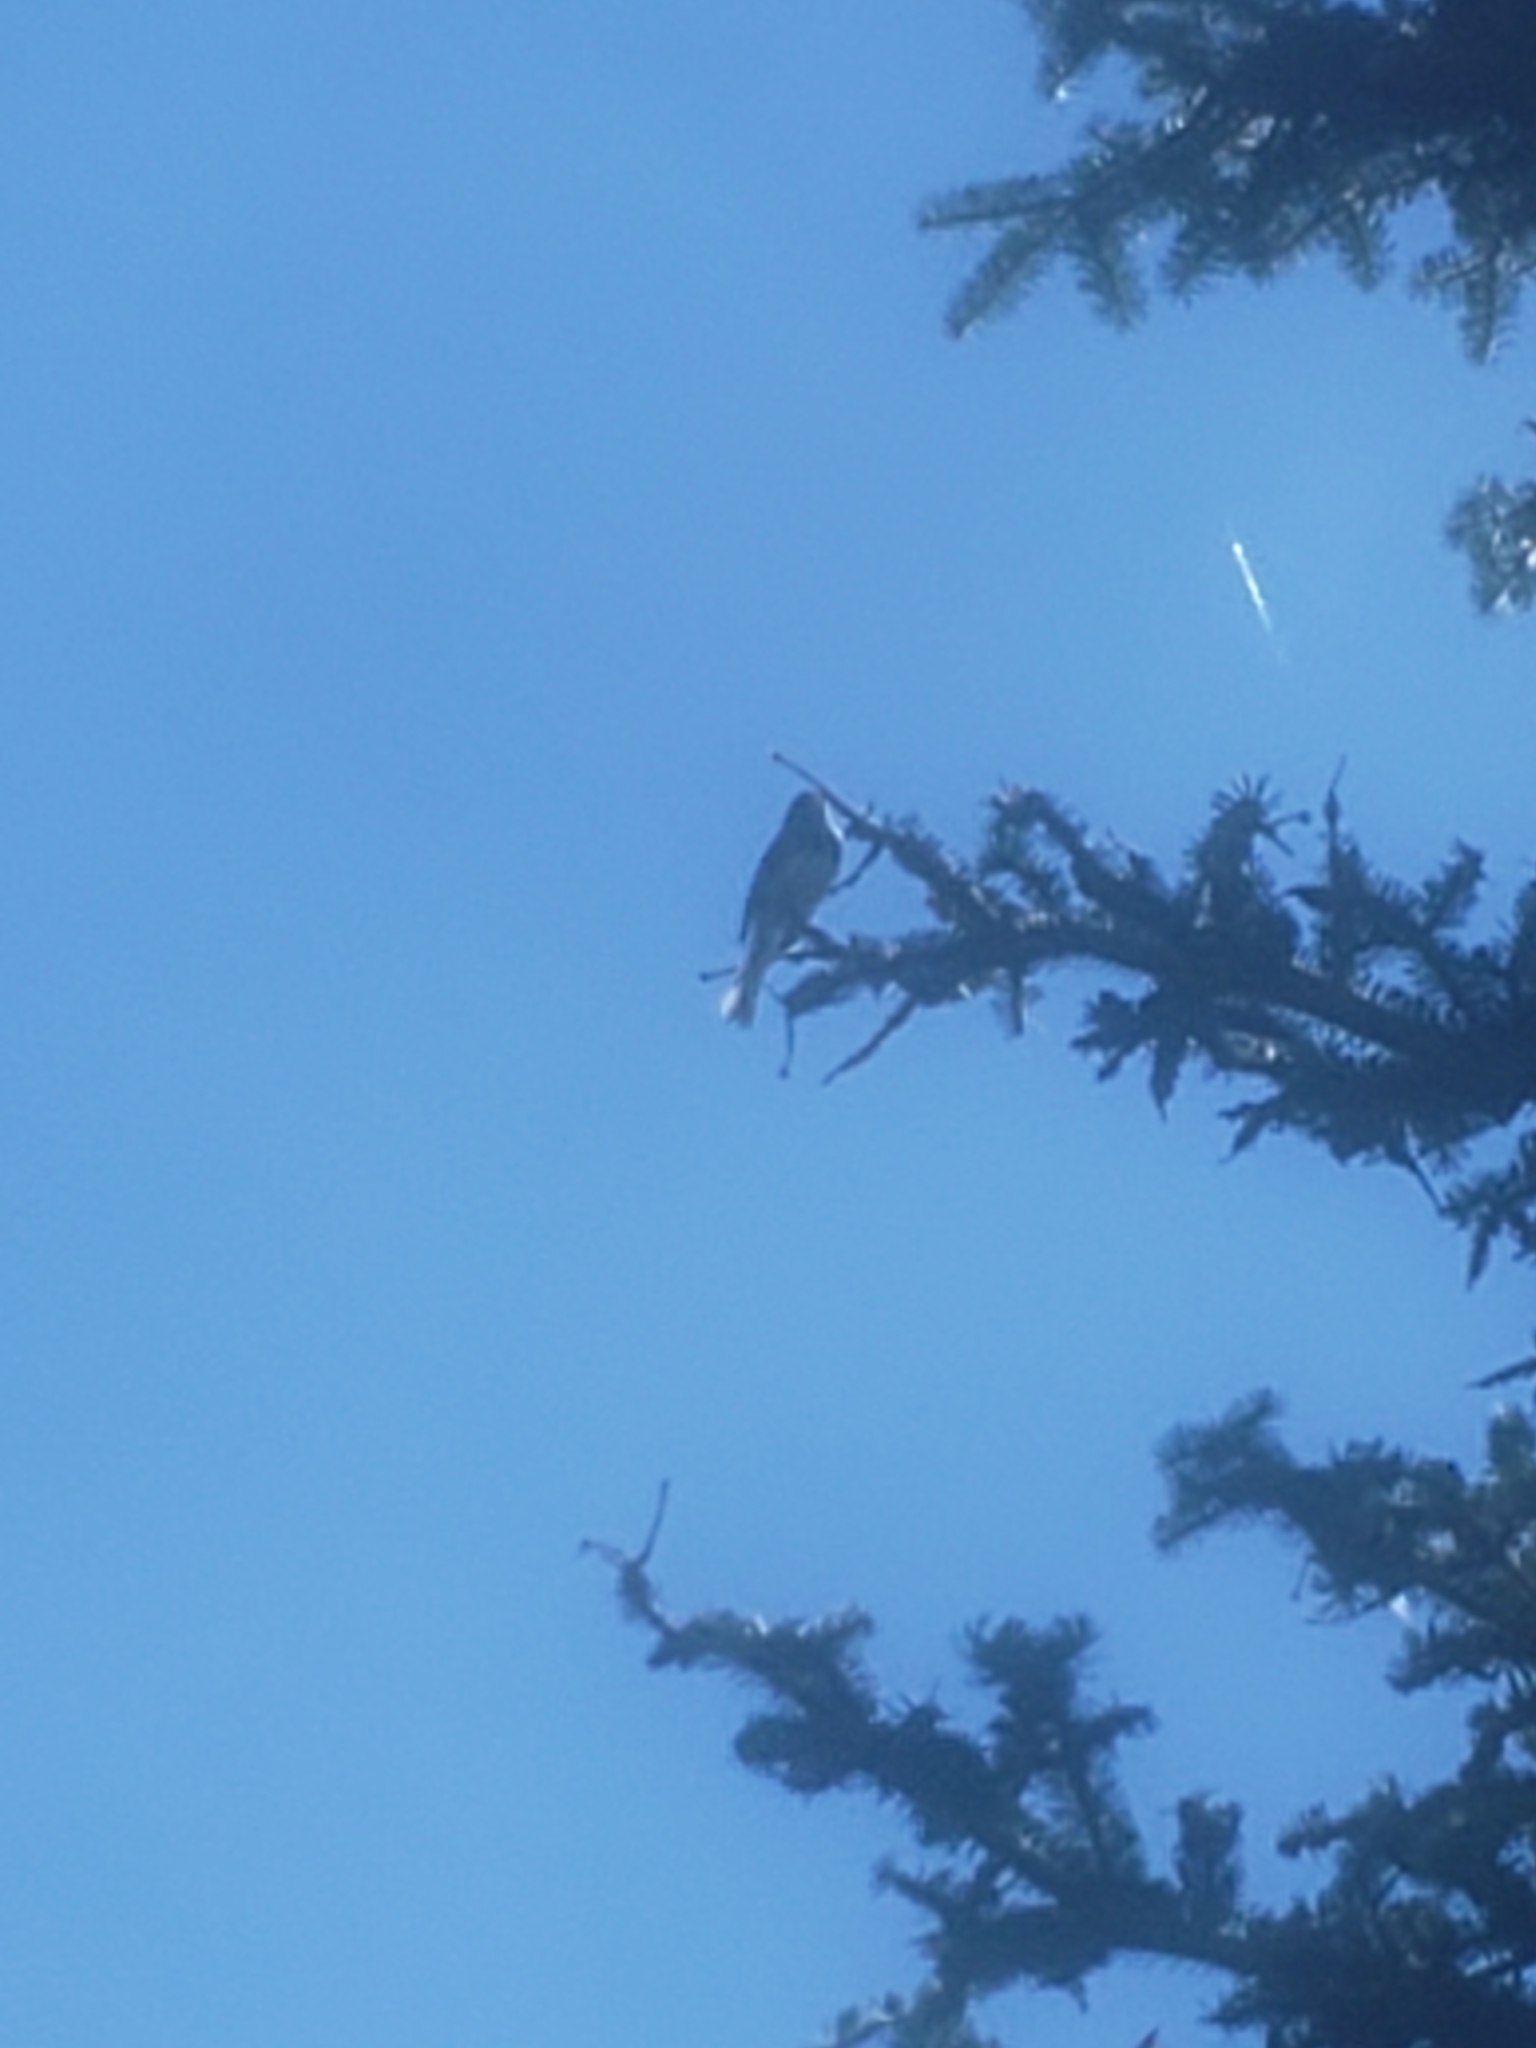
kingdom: Animalia
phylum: Chordata
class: Aves
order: Passeriformes
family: Passerellidae
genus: Junco
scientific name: Junco hyemalis
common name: Dark-eyed junco
